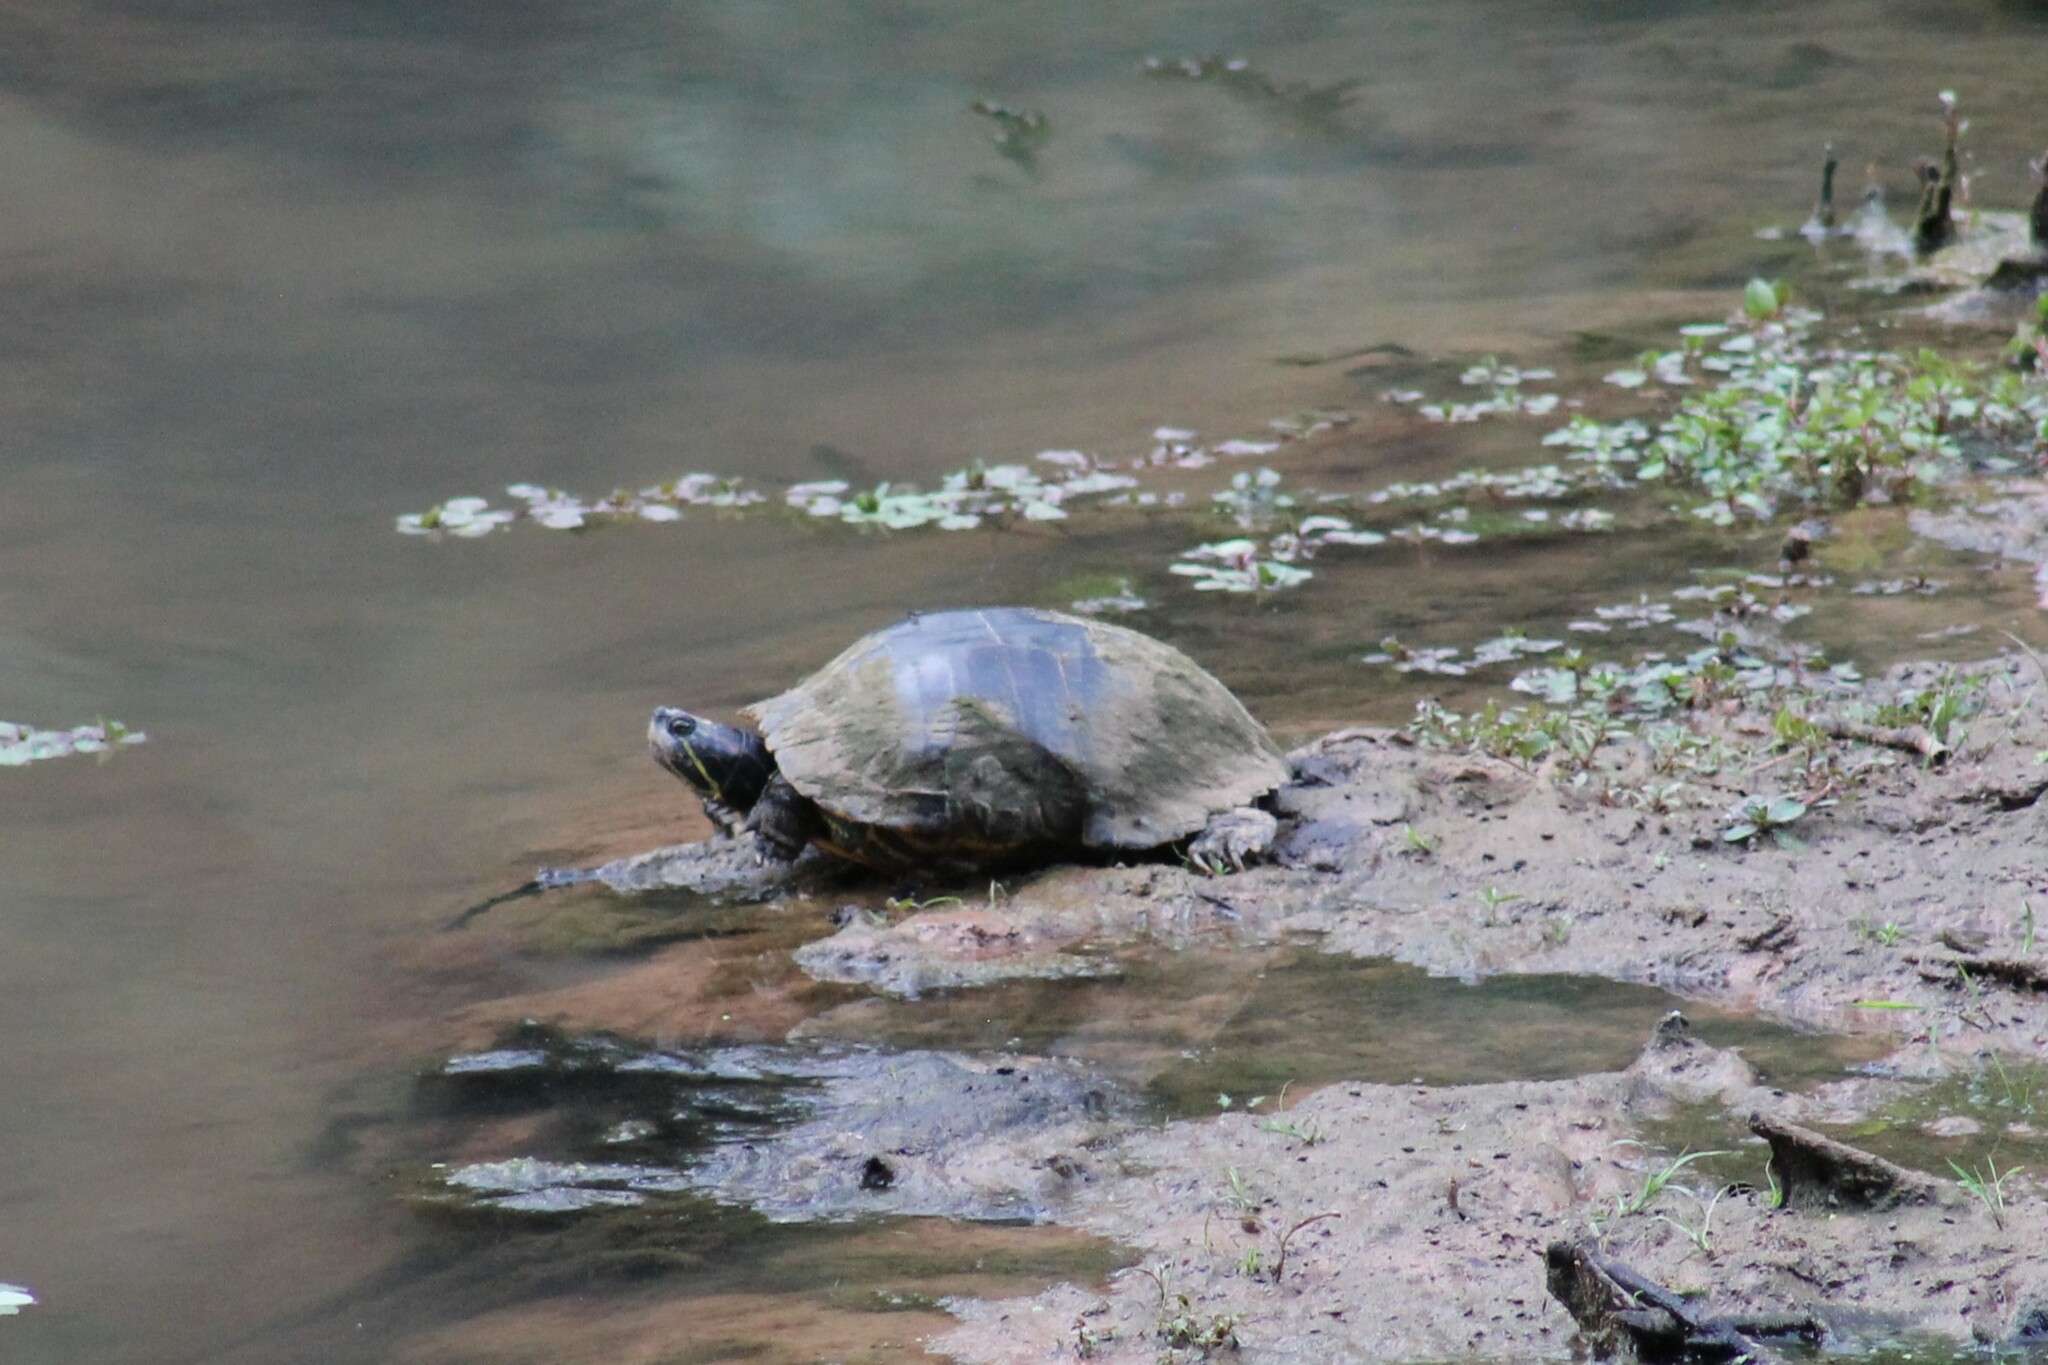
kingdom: Animalia
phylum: Chordata
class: Testudines
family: Emydidae
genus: Trachemys
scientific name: Trachemys scripta
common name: Slider
